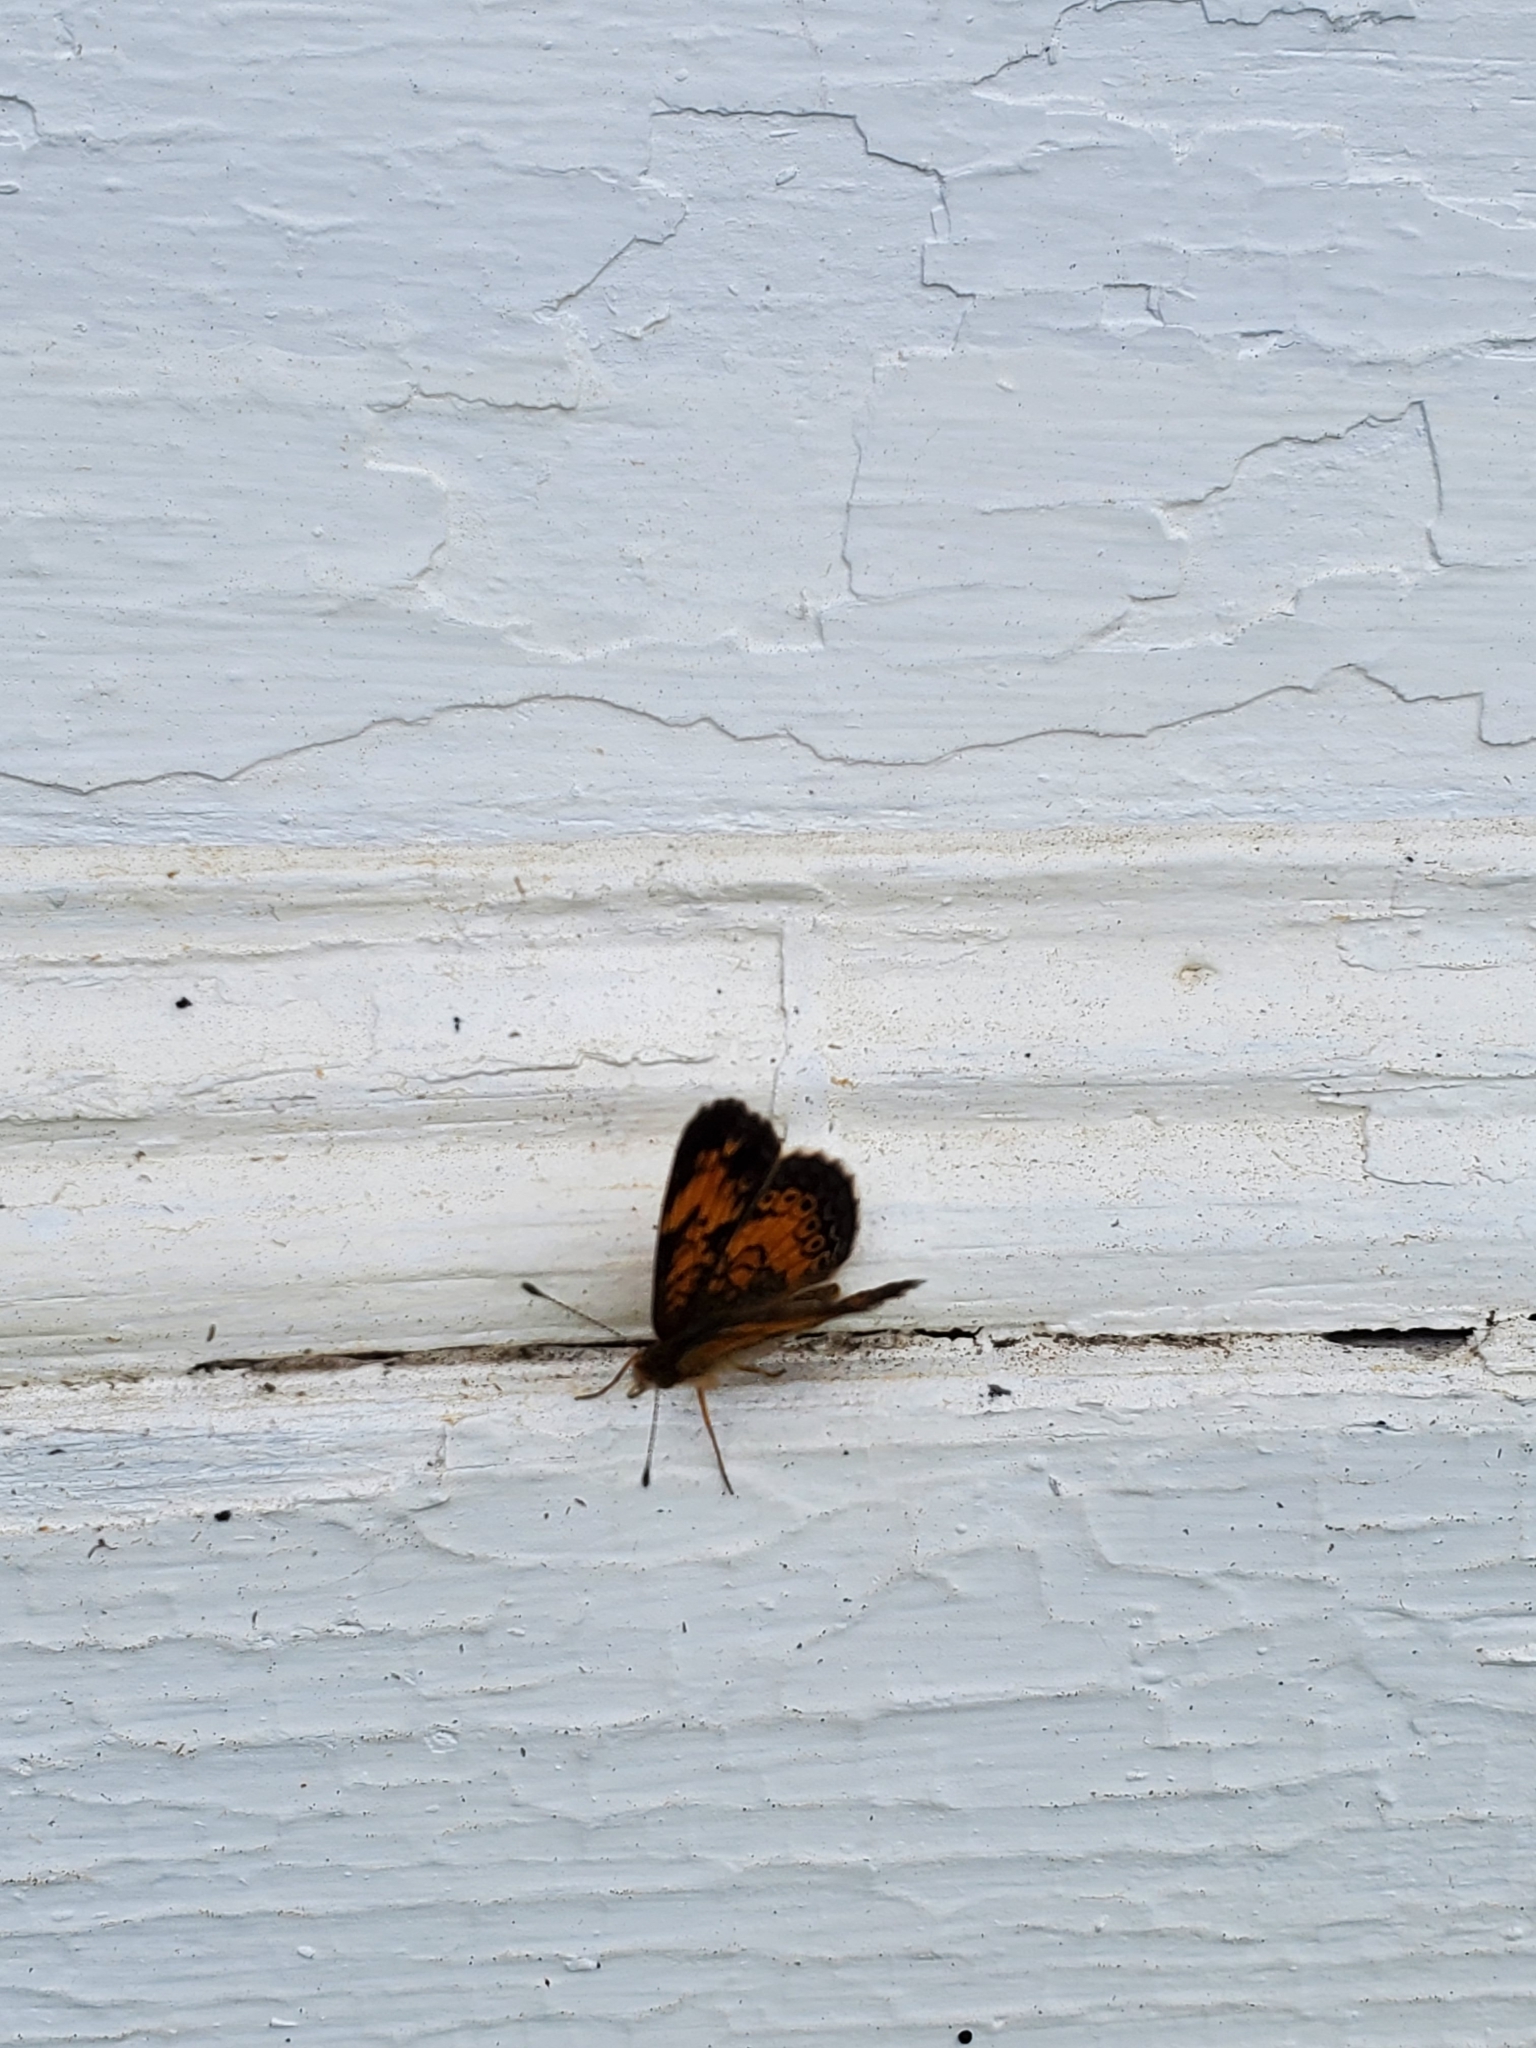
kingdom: Animalia
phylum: Arthropoda
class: Insecta
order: Lepidoptera
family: Nymphalidae
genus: Phyciodes
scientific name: Phyciodes tharos
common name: Pearl crescent
